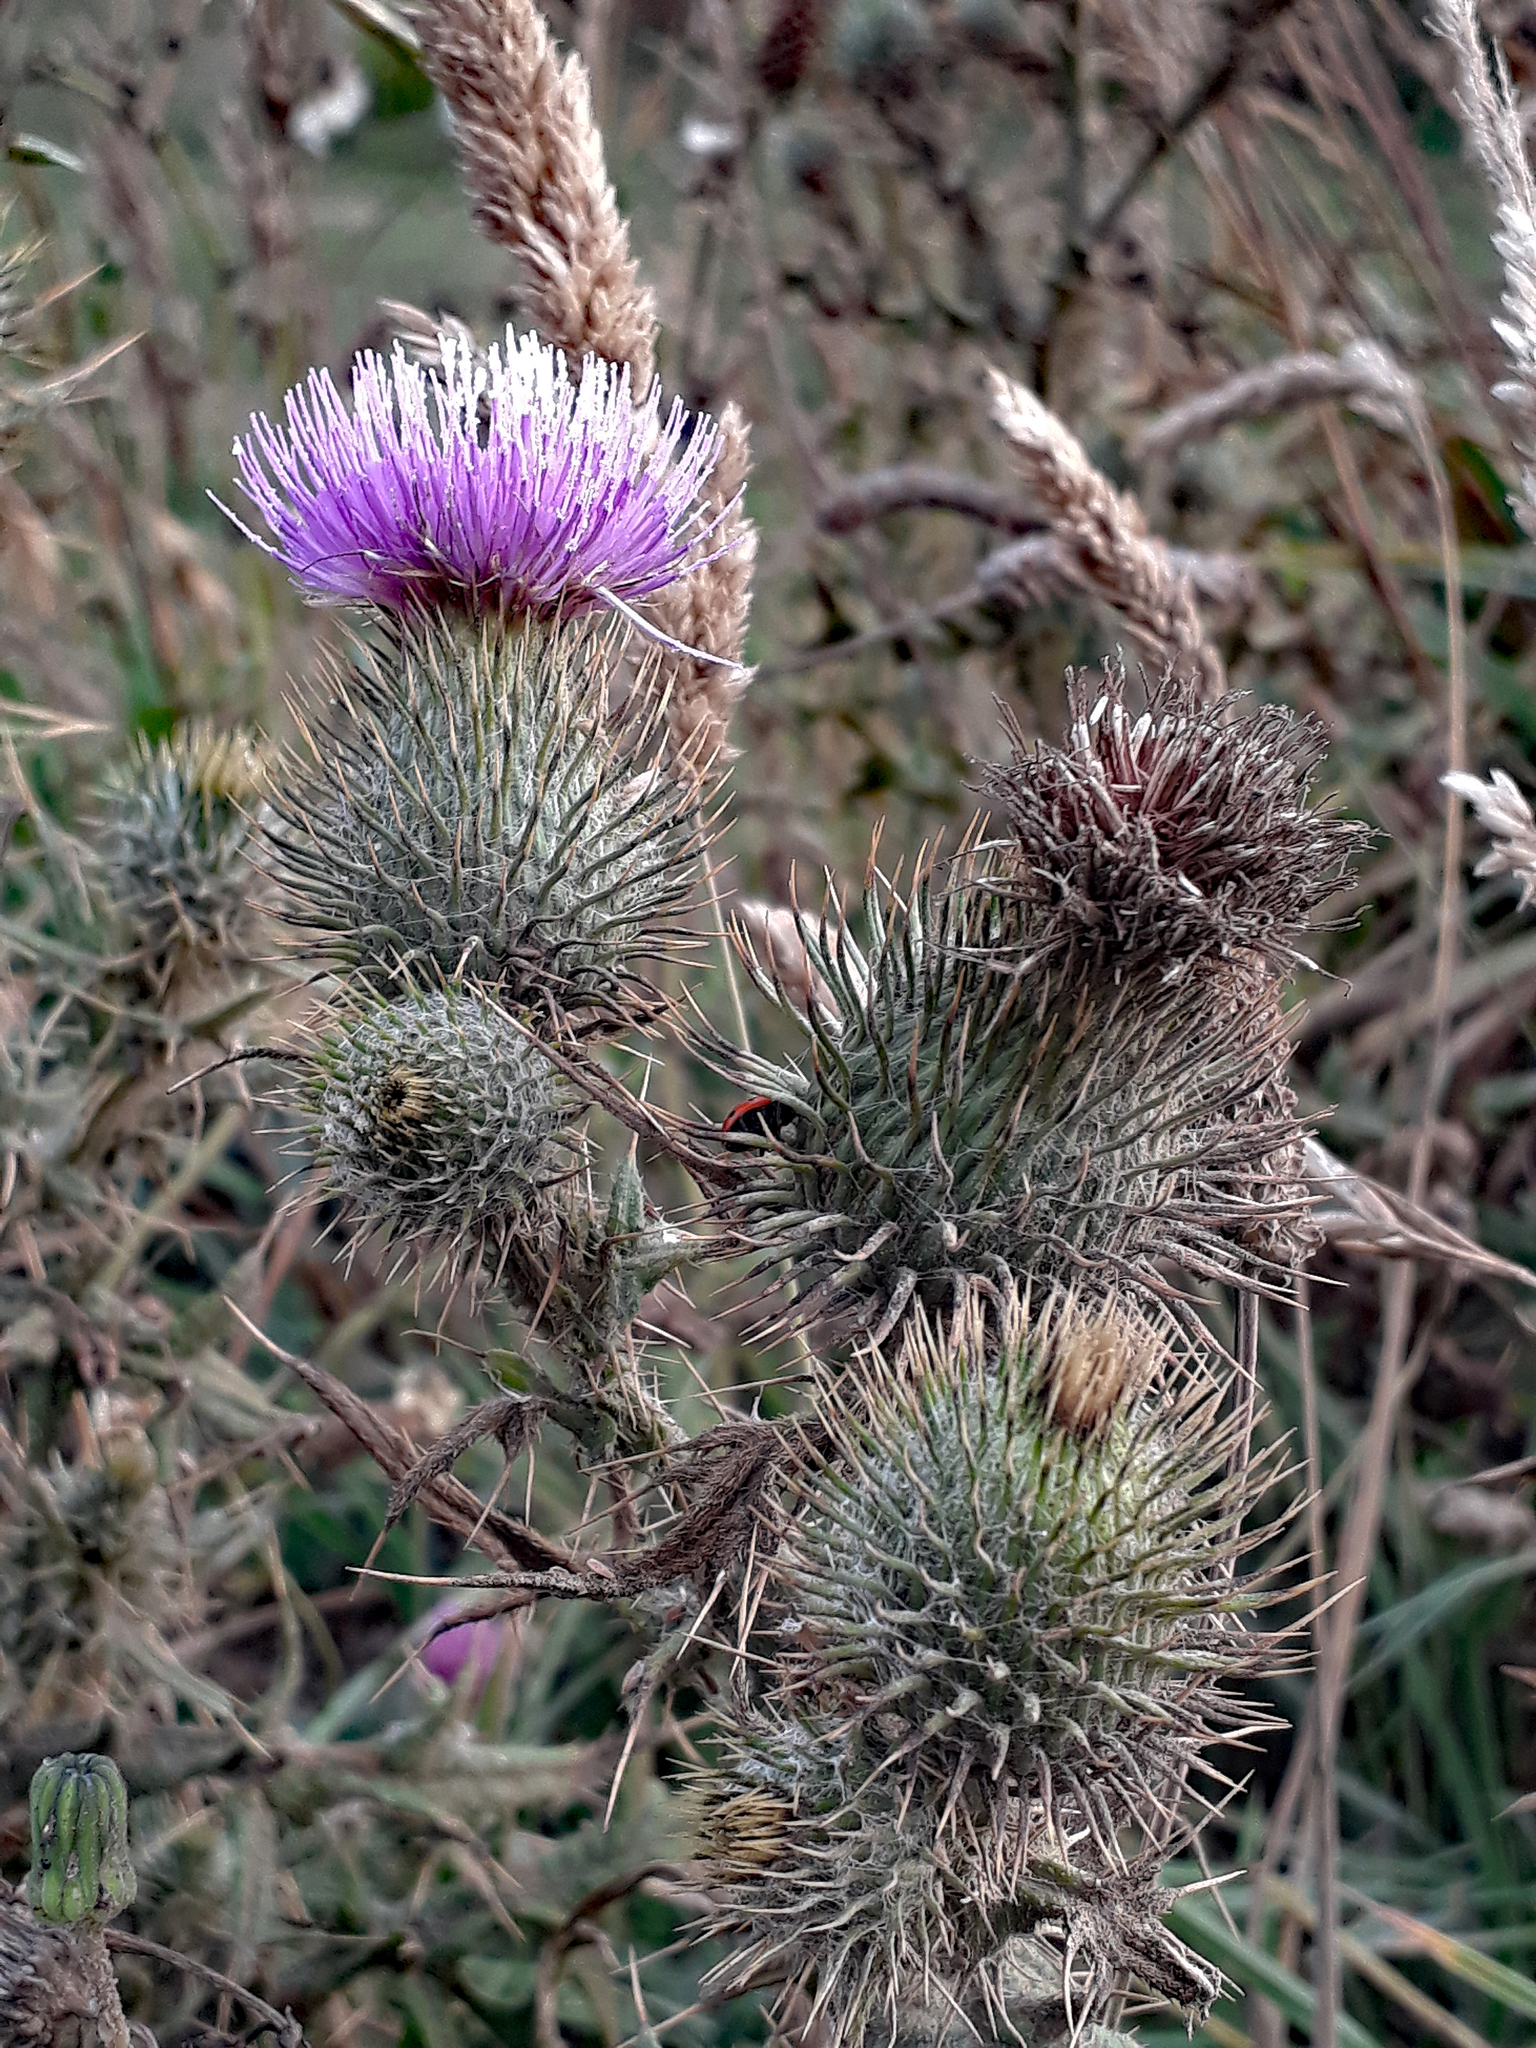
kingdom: Plantae
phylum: Tracheophyta
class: Magnoliopsida
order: Asterales
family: Asteraceae
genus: Cirsium
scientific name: Cirsium vulgare
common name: Bull thistle
